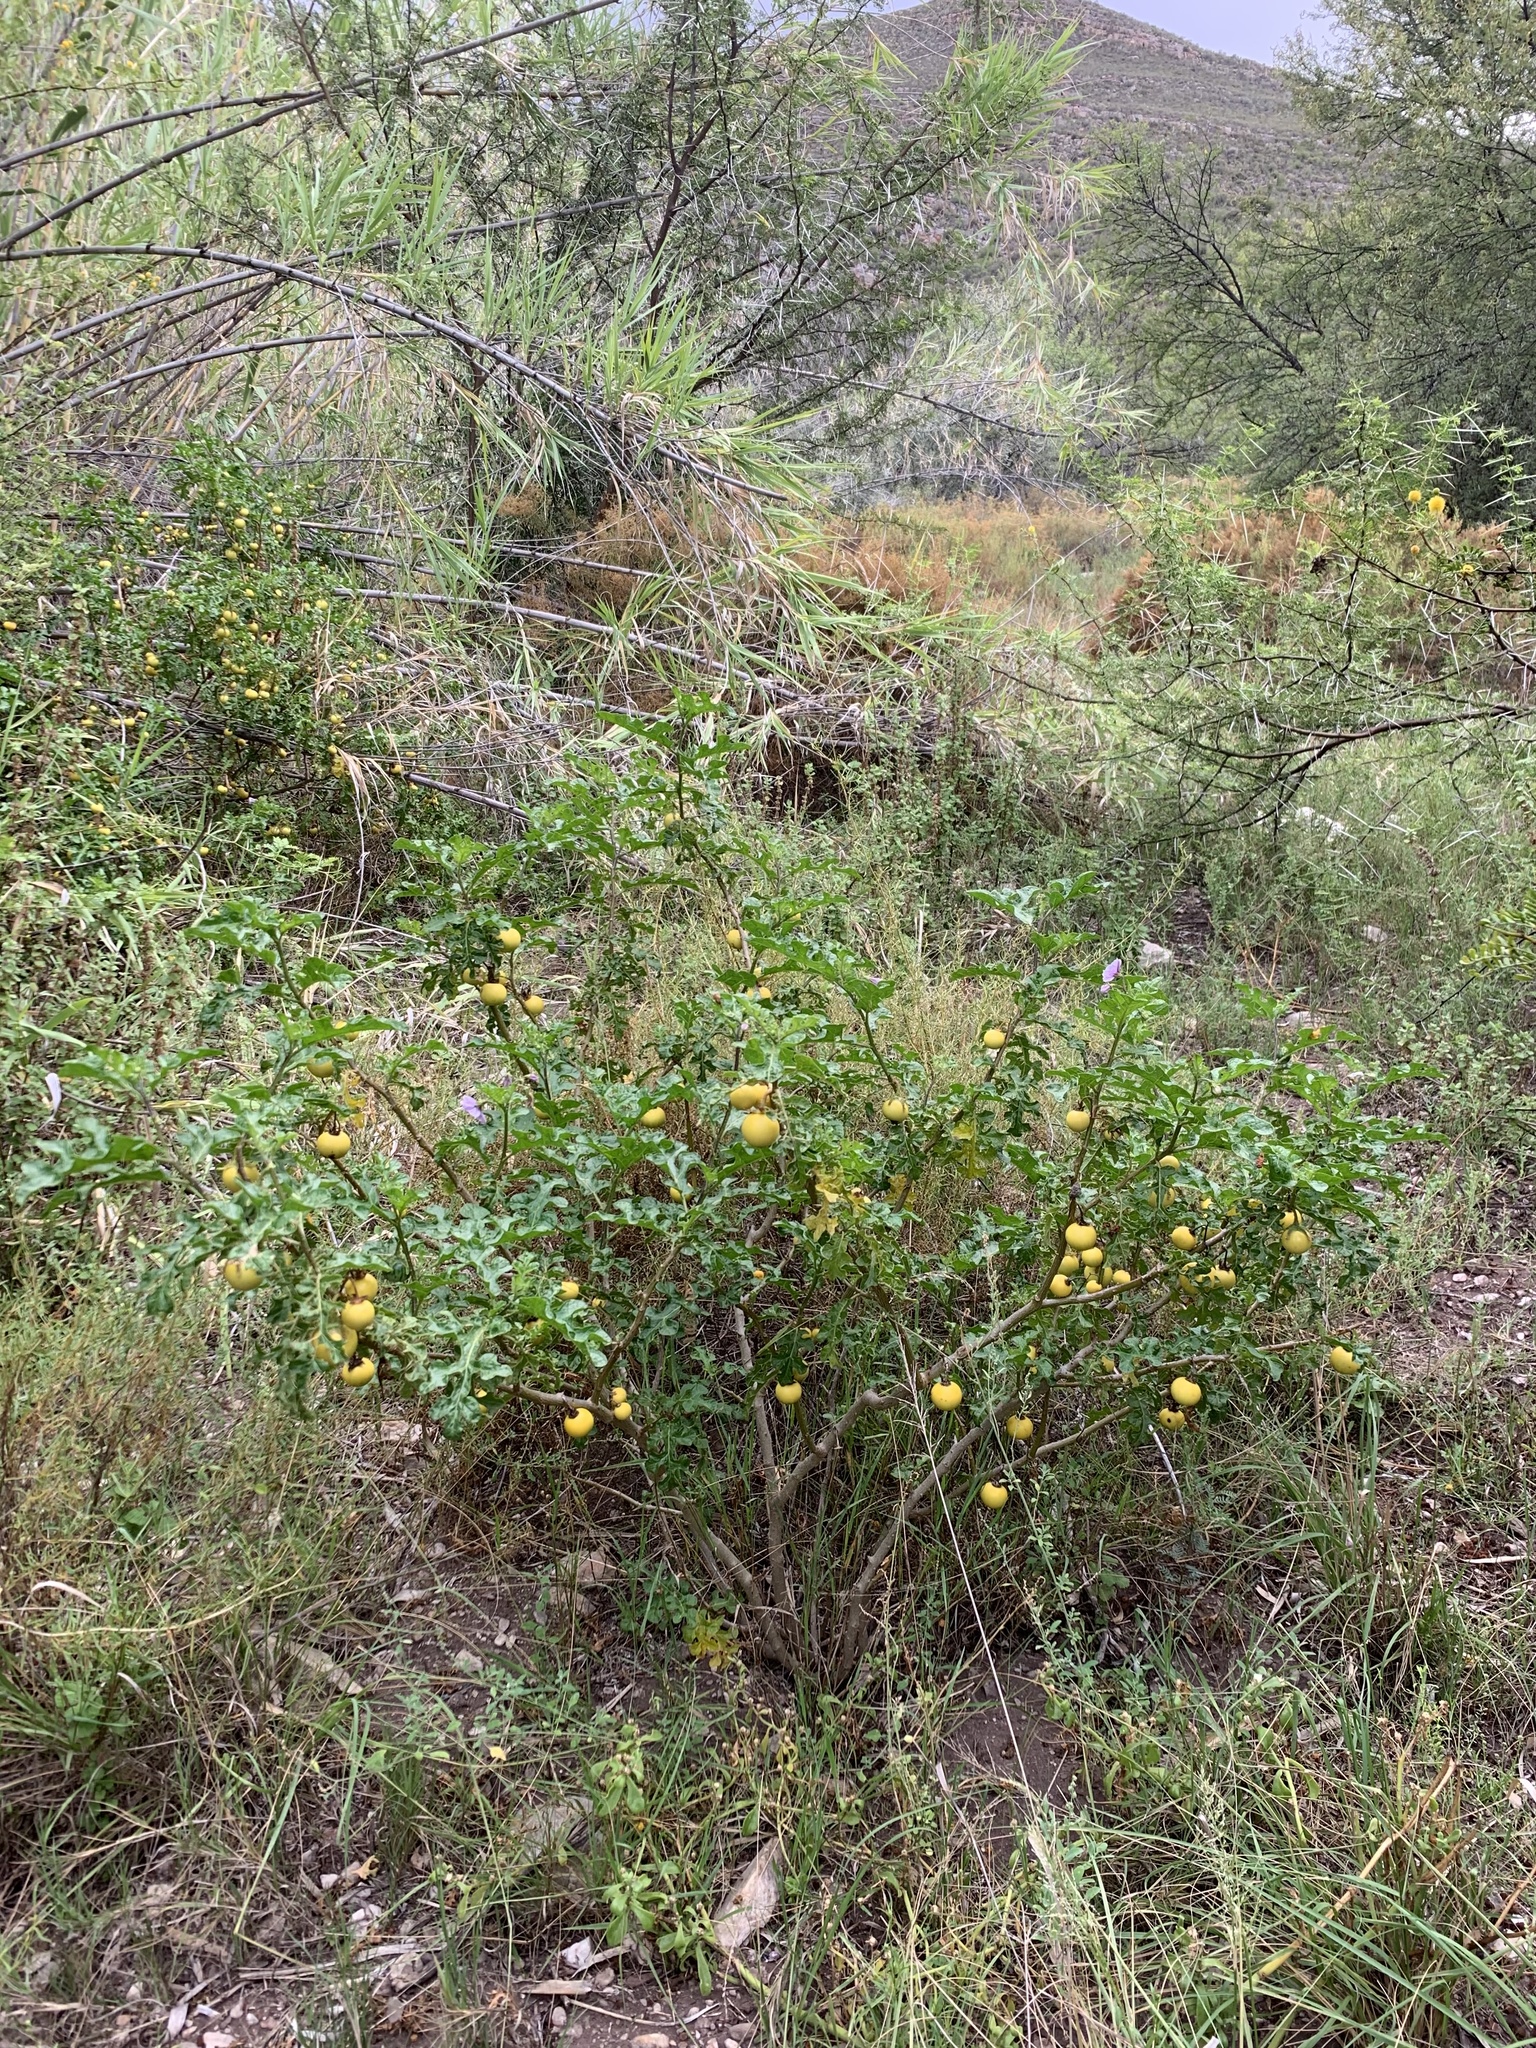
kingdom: Plantae
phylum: Tracheophyta
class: Magnoliopsida
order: Solanales
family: Solanaceae
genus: Solanum
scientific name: Solanum linnaeanum
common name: Nightshade
